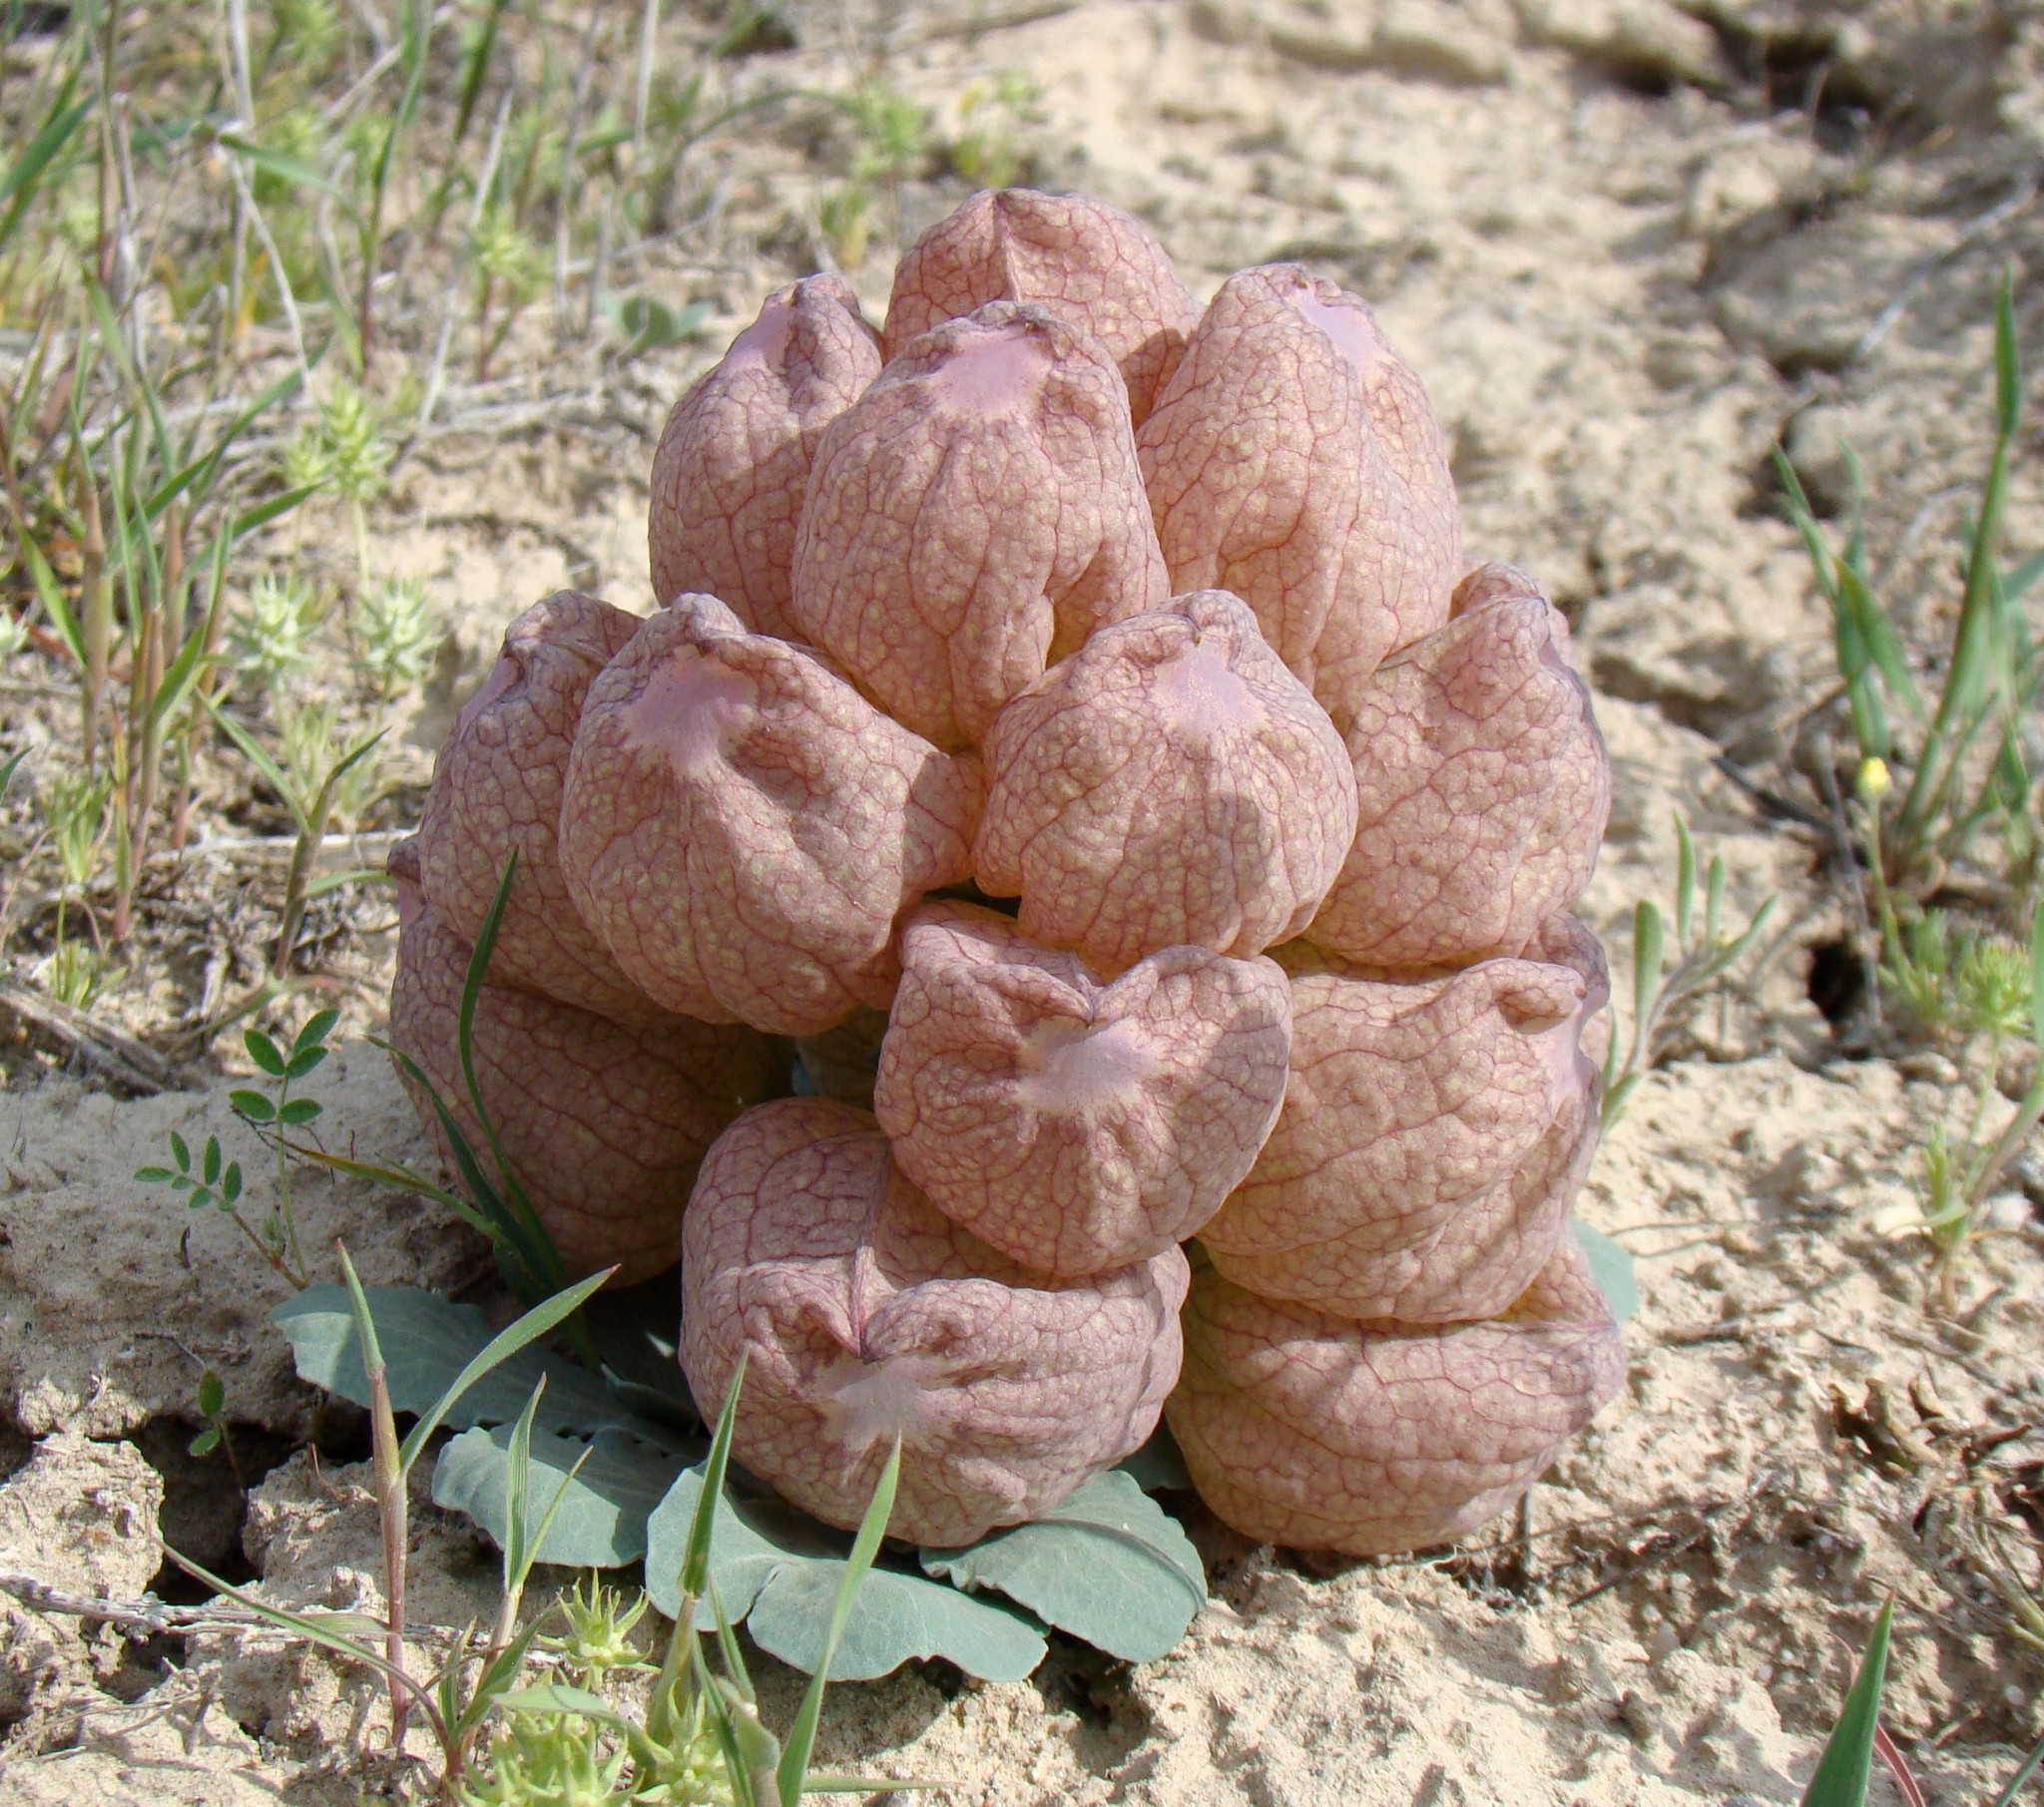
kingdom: Plantae
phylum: Tracheophyta
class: Magnoliopsida
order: Ranunculales
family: Berberidaceae
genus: Leontice
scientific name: Leontice incerta
